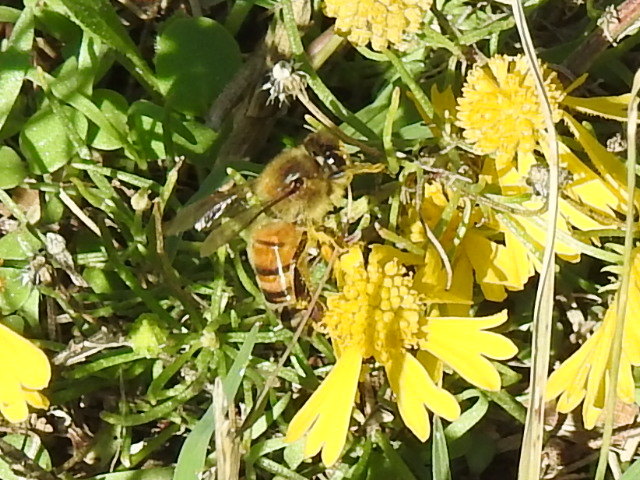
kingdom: Animalia
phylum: Arthropoda
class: Insecta
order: Hymenoptera
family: Apidae
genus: Apis
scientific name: Apis mellifera
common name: Honey bee
